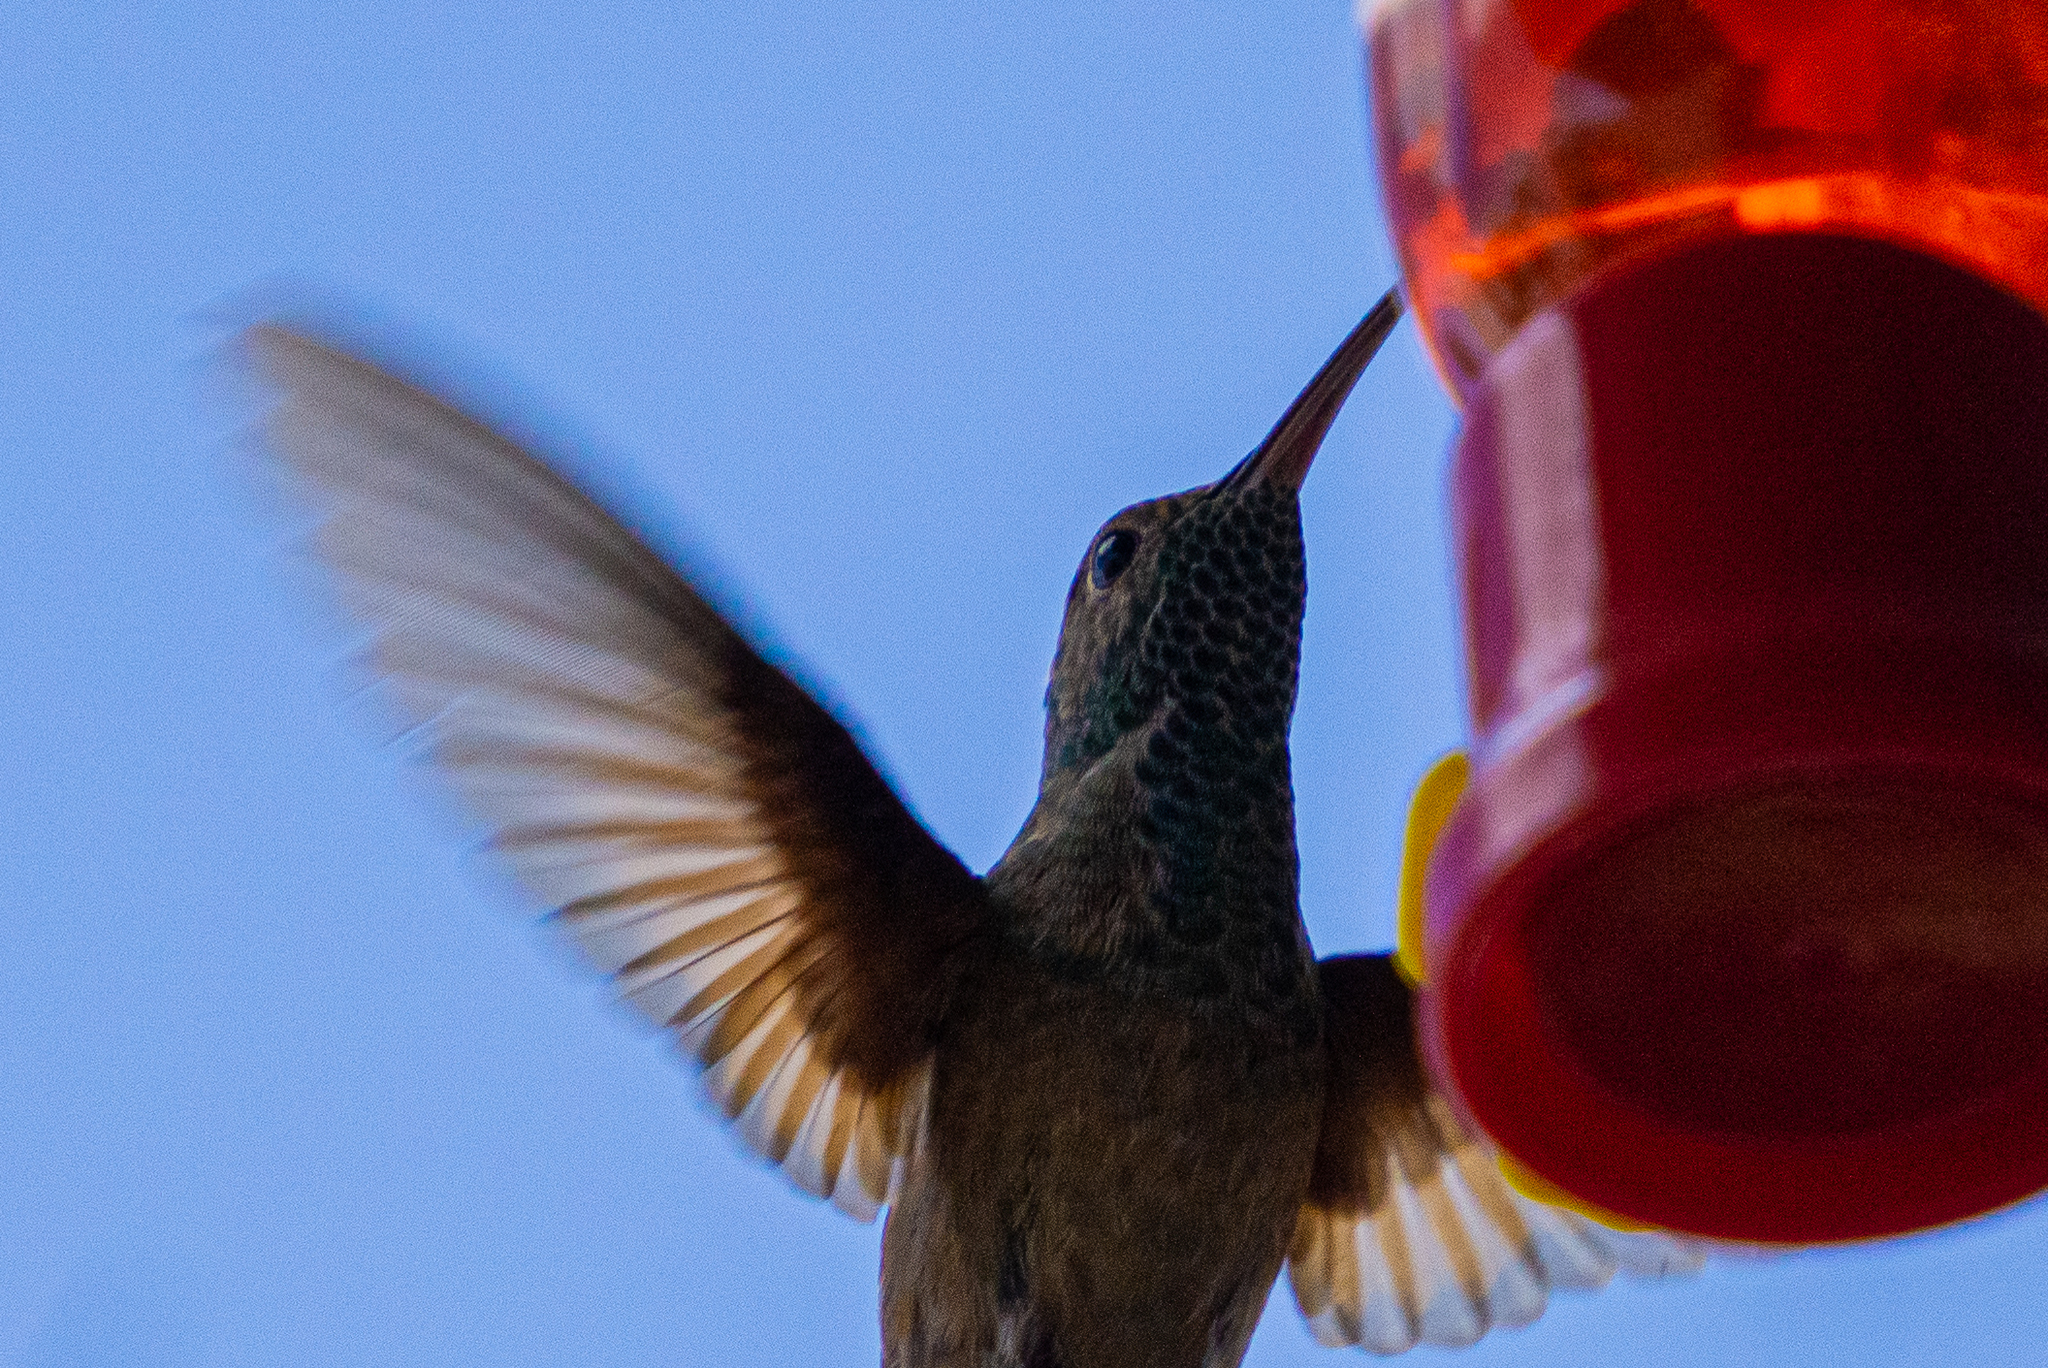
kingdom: Animalia
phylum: Chordata
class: Aves
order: Apodiformes
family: Trochilidae
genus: Saucerottia
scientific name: Saucerottia beryllina
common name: Berylline hummingbird
